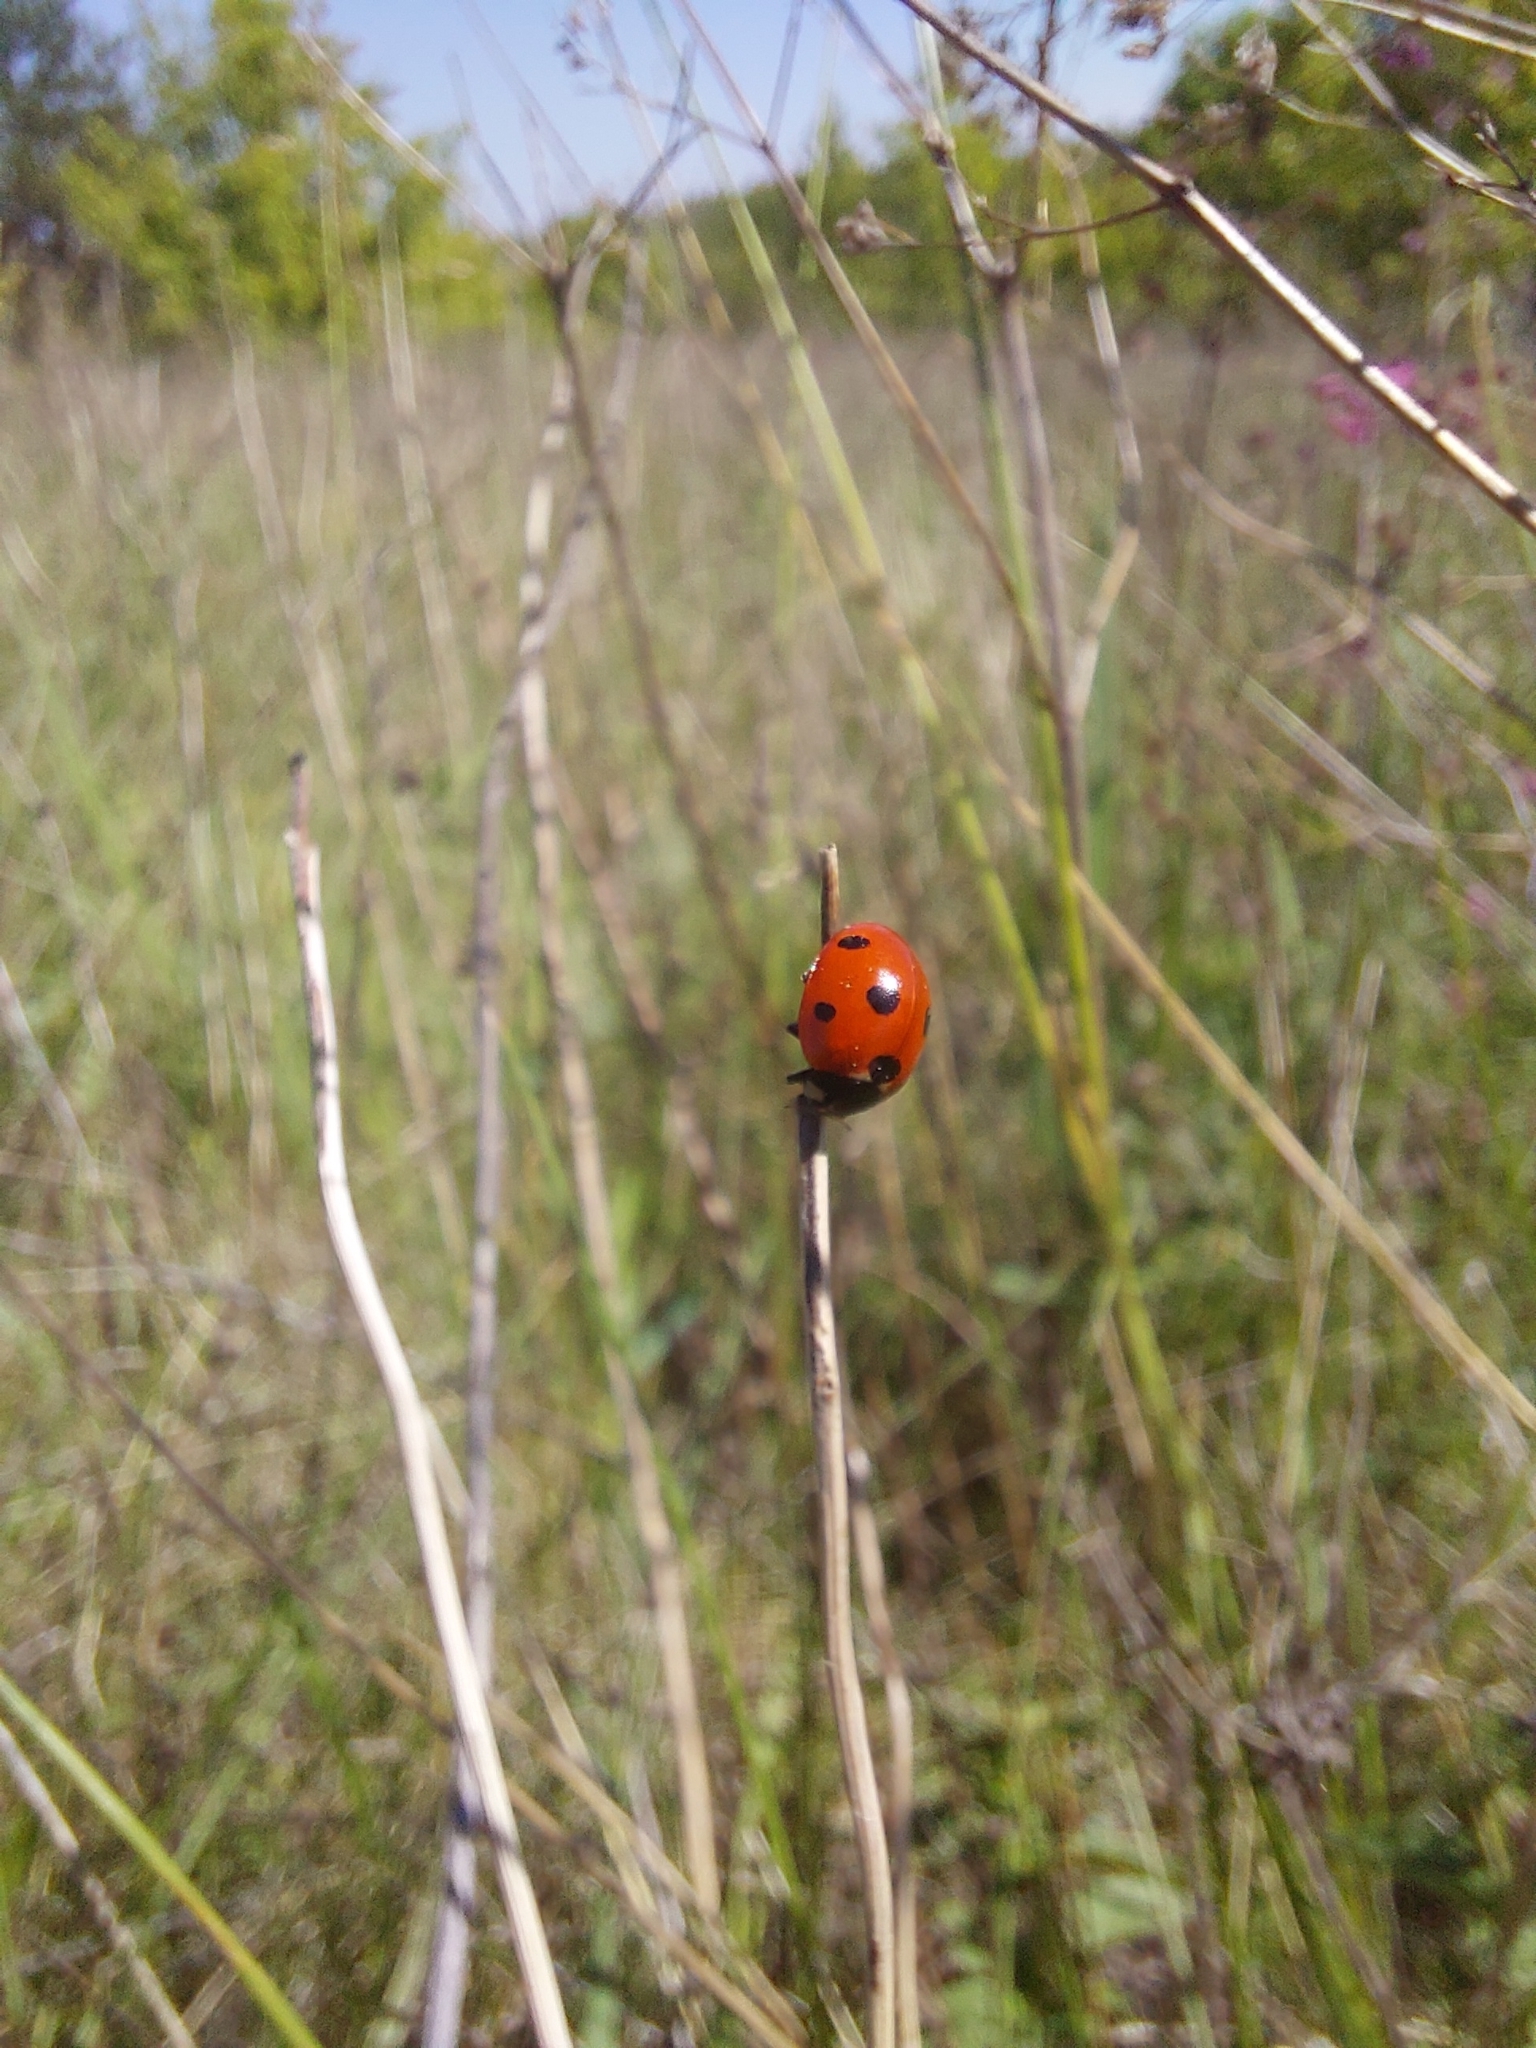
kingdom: Animalia
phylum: Arthropoda
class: Insecta
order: Coleoptera
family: Coccinellidae
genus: Coccinella
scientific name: Coccinella septempunctata
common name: Sevenspotted lady beetle
